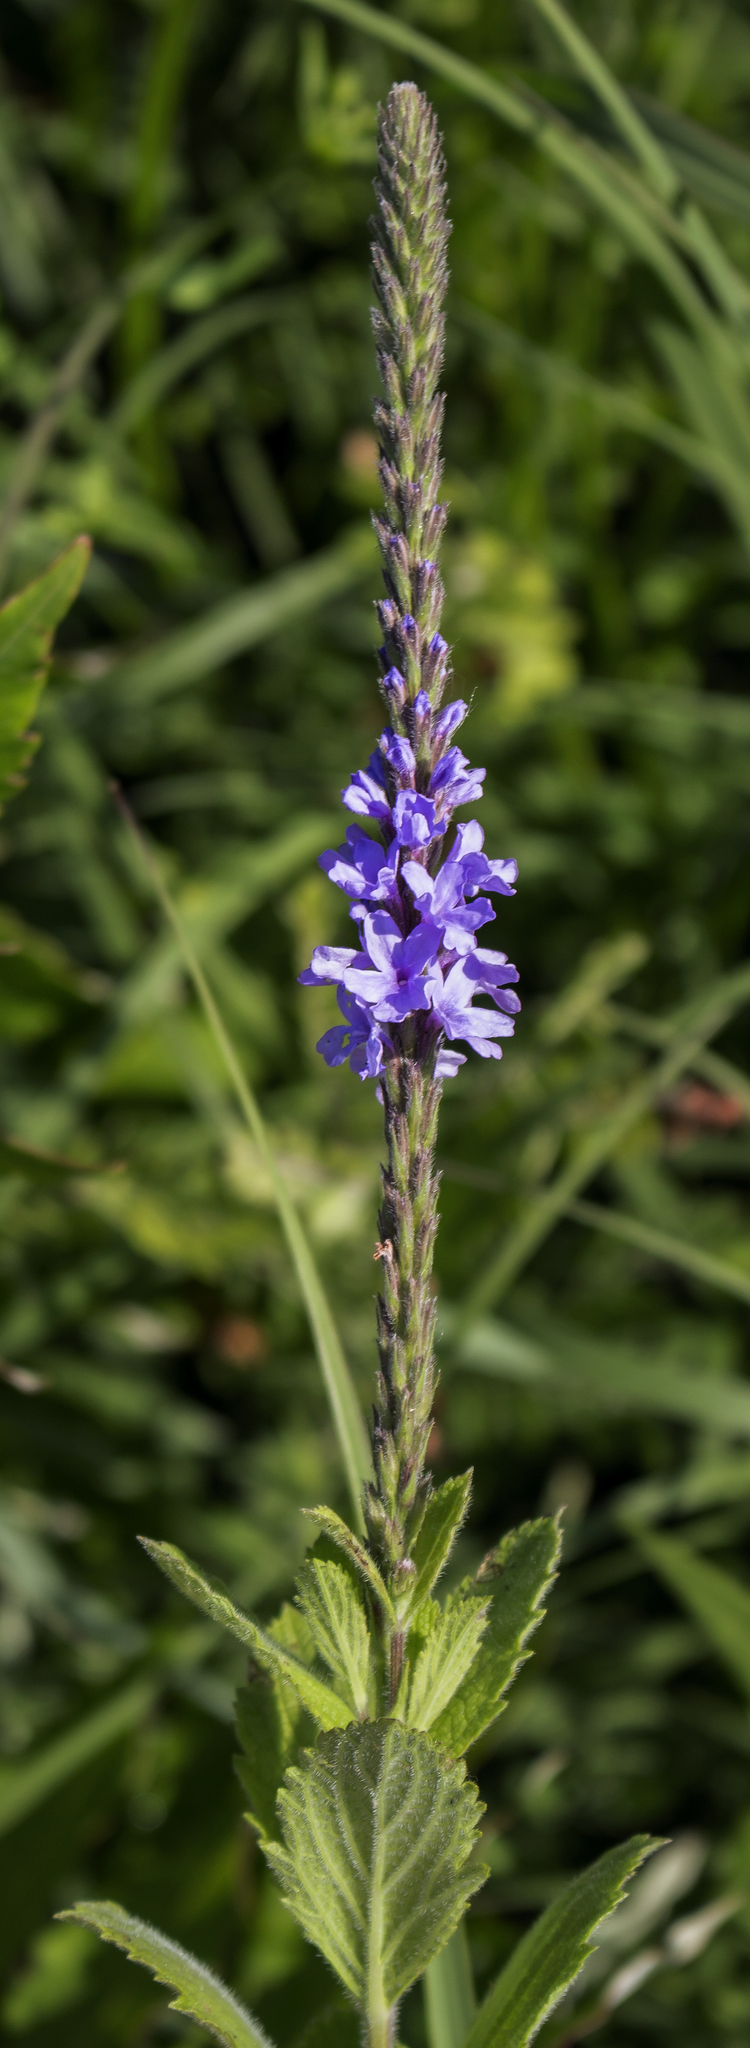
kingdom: Plantae
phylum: Tracheophyta
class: Magnoliopsida
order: Lamiales
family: Verbenaceae
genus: Verbena
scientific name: Verbena stricta
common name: Hoary vervain
